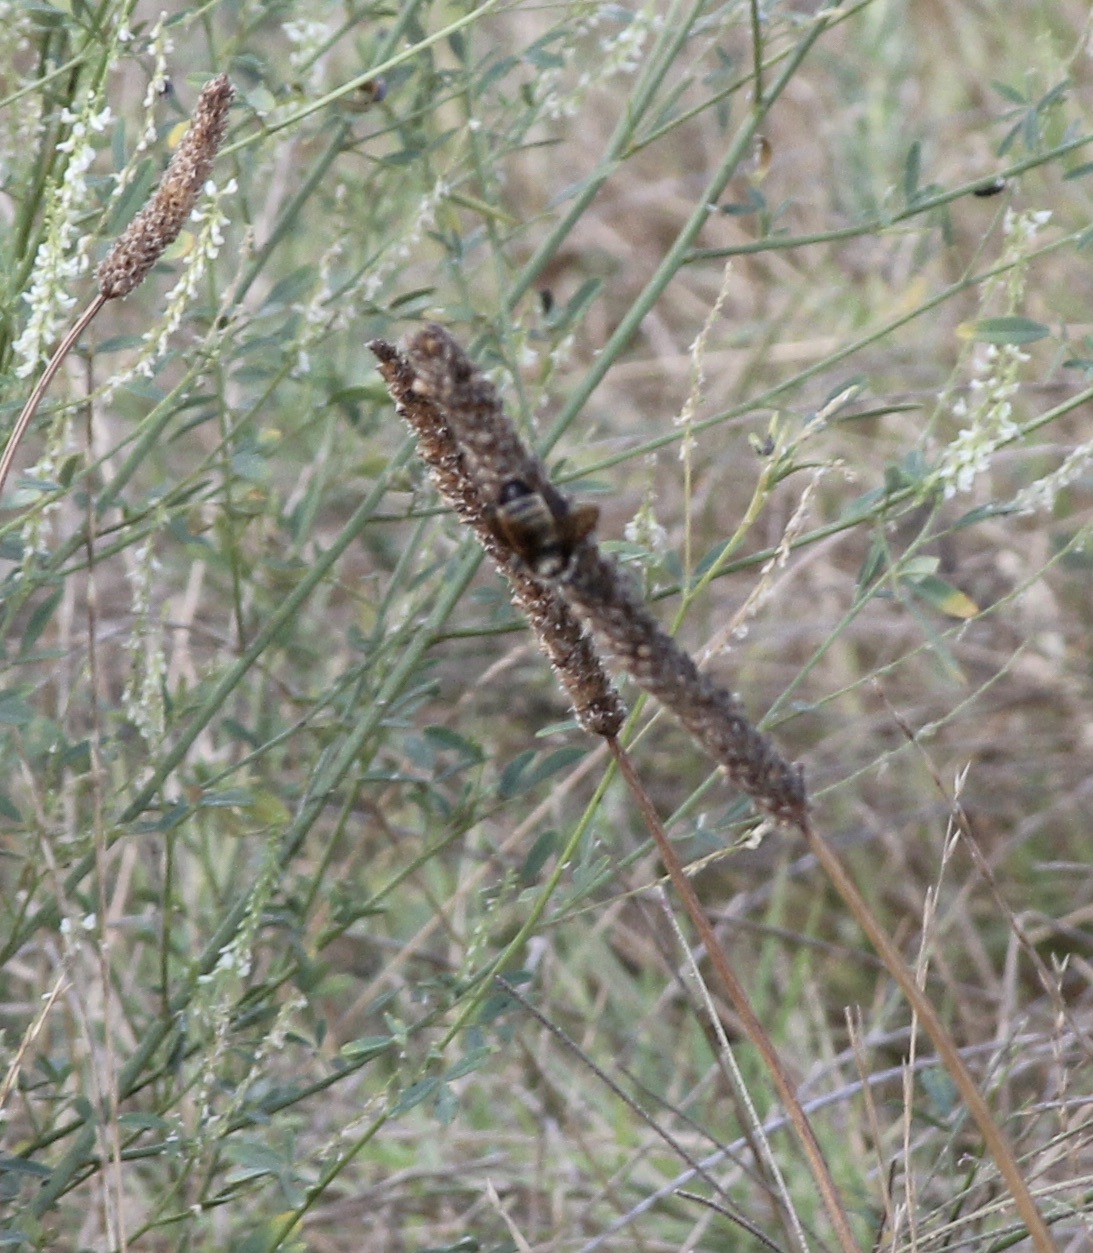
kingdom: Animalia
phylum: Arthropoda
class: Insecta
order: Hymenoptera
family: Apidae
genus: Bombus
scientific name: Bombus sonorus
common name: Sonoran bumble bee
